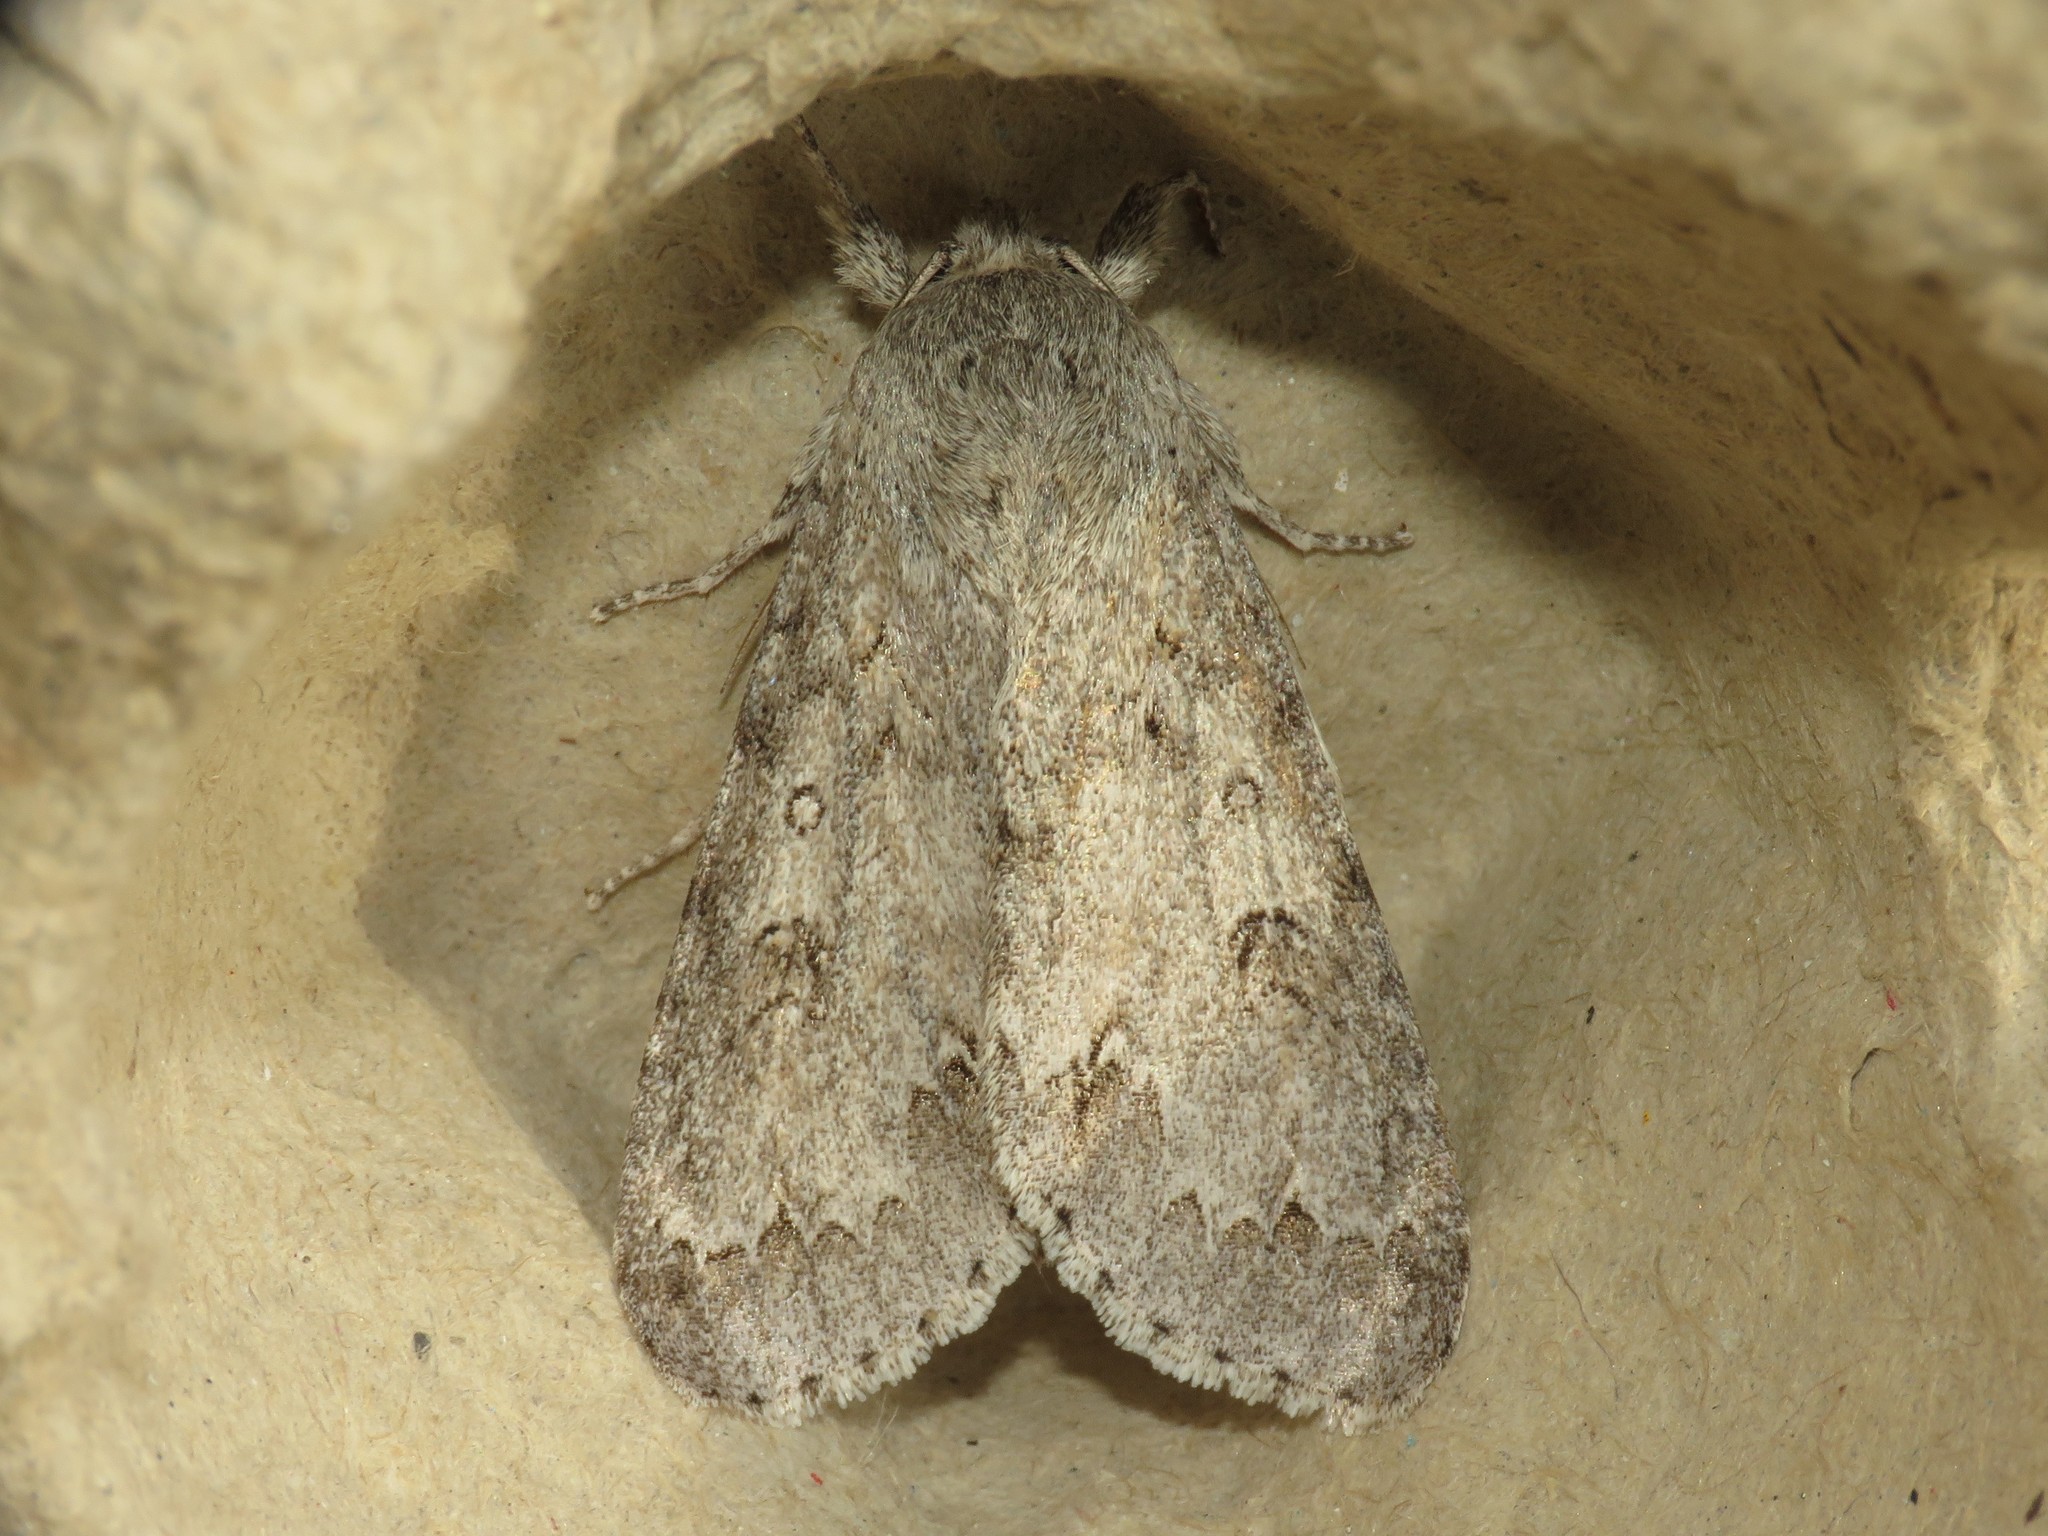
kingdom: Animalia
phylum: Arthropoda
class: Insecta
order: Lepidoptera
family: Noctuidae
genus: Acronicta
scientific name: Acronicta insita
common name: Large gray dagger
